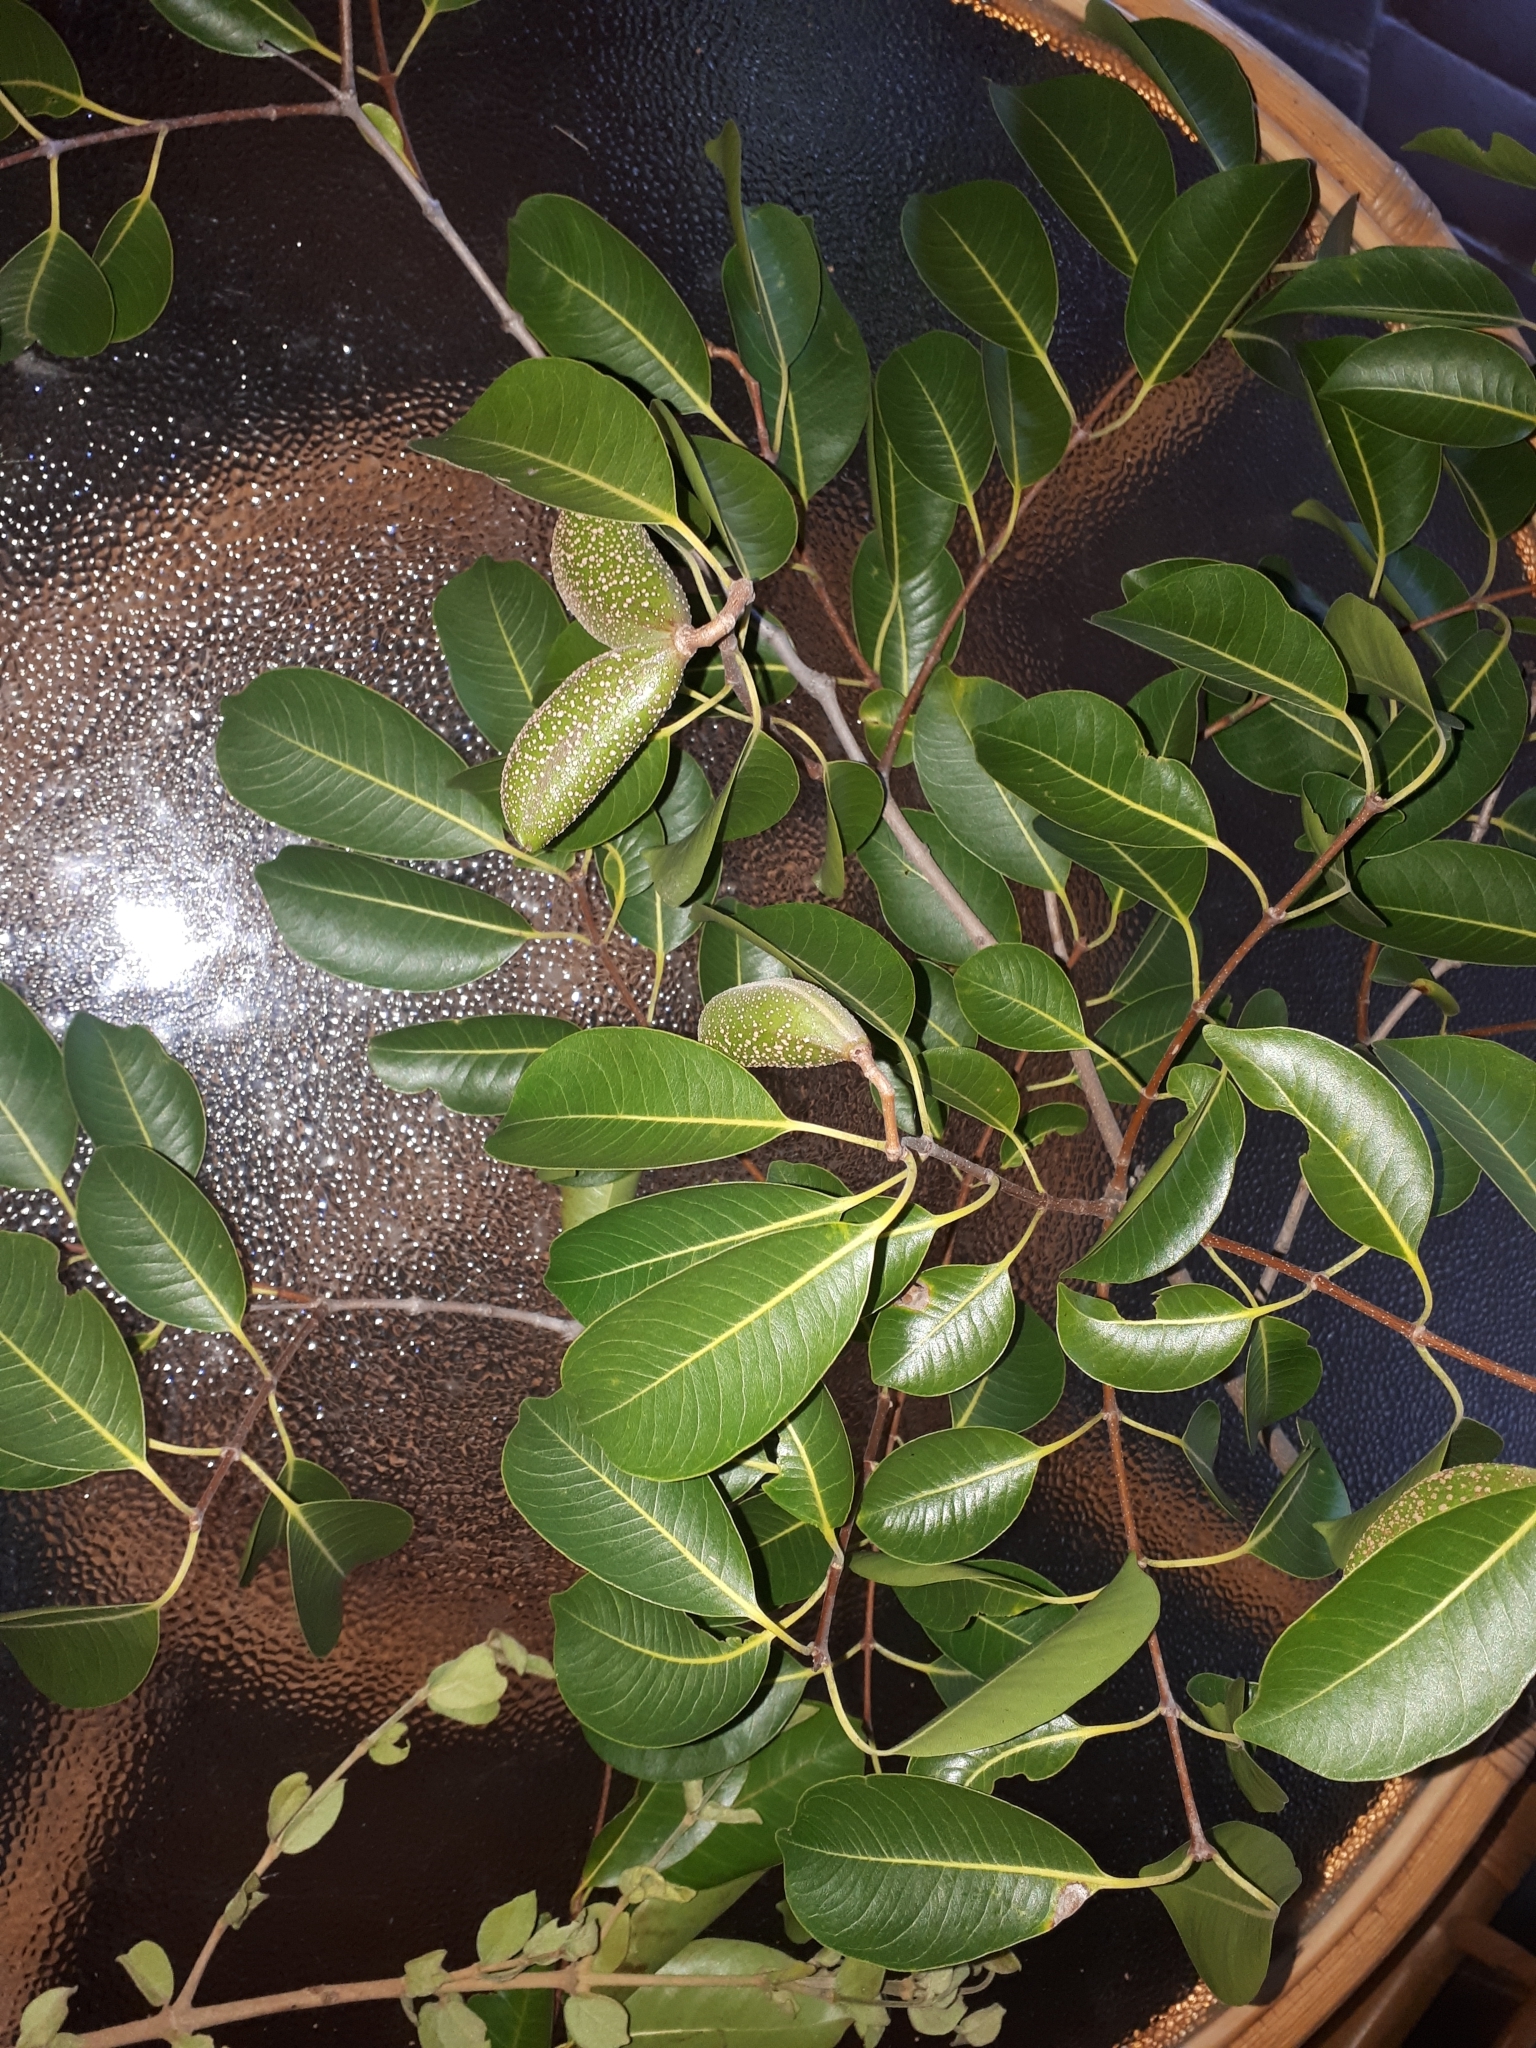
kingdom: Plantae
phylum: Tracheophyta
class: Magnoliopsida
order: Gentianales
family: Apocynaceae
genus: Diplorhynchus
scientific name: Diplorhynchus condylocarpon
